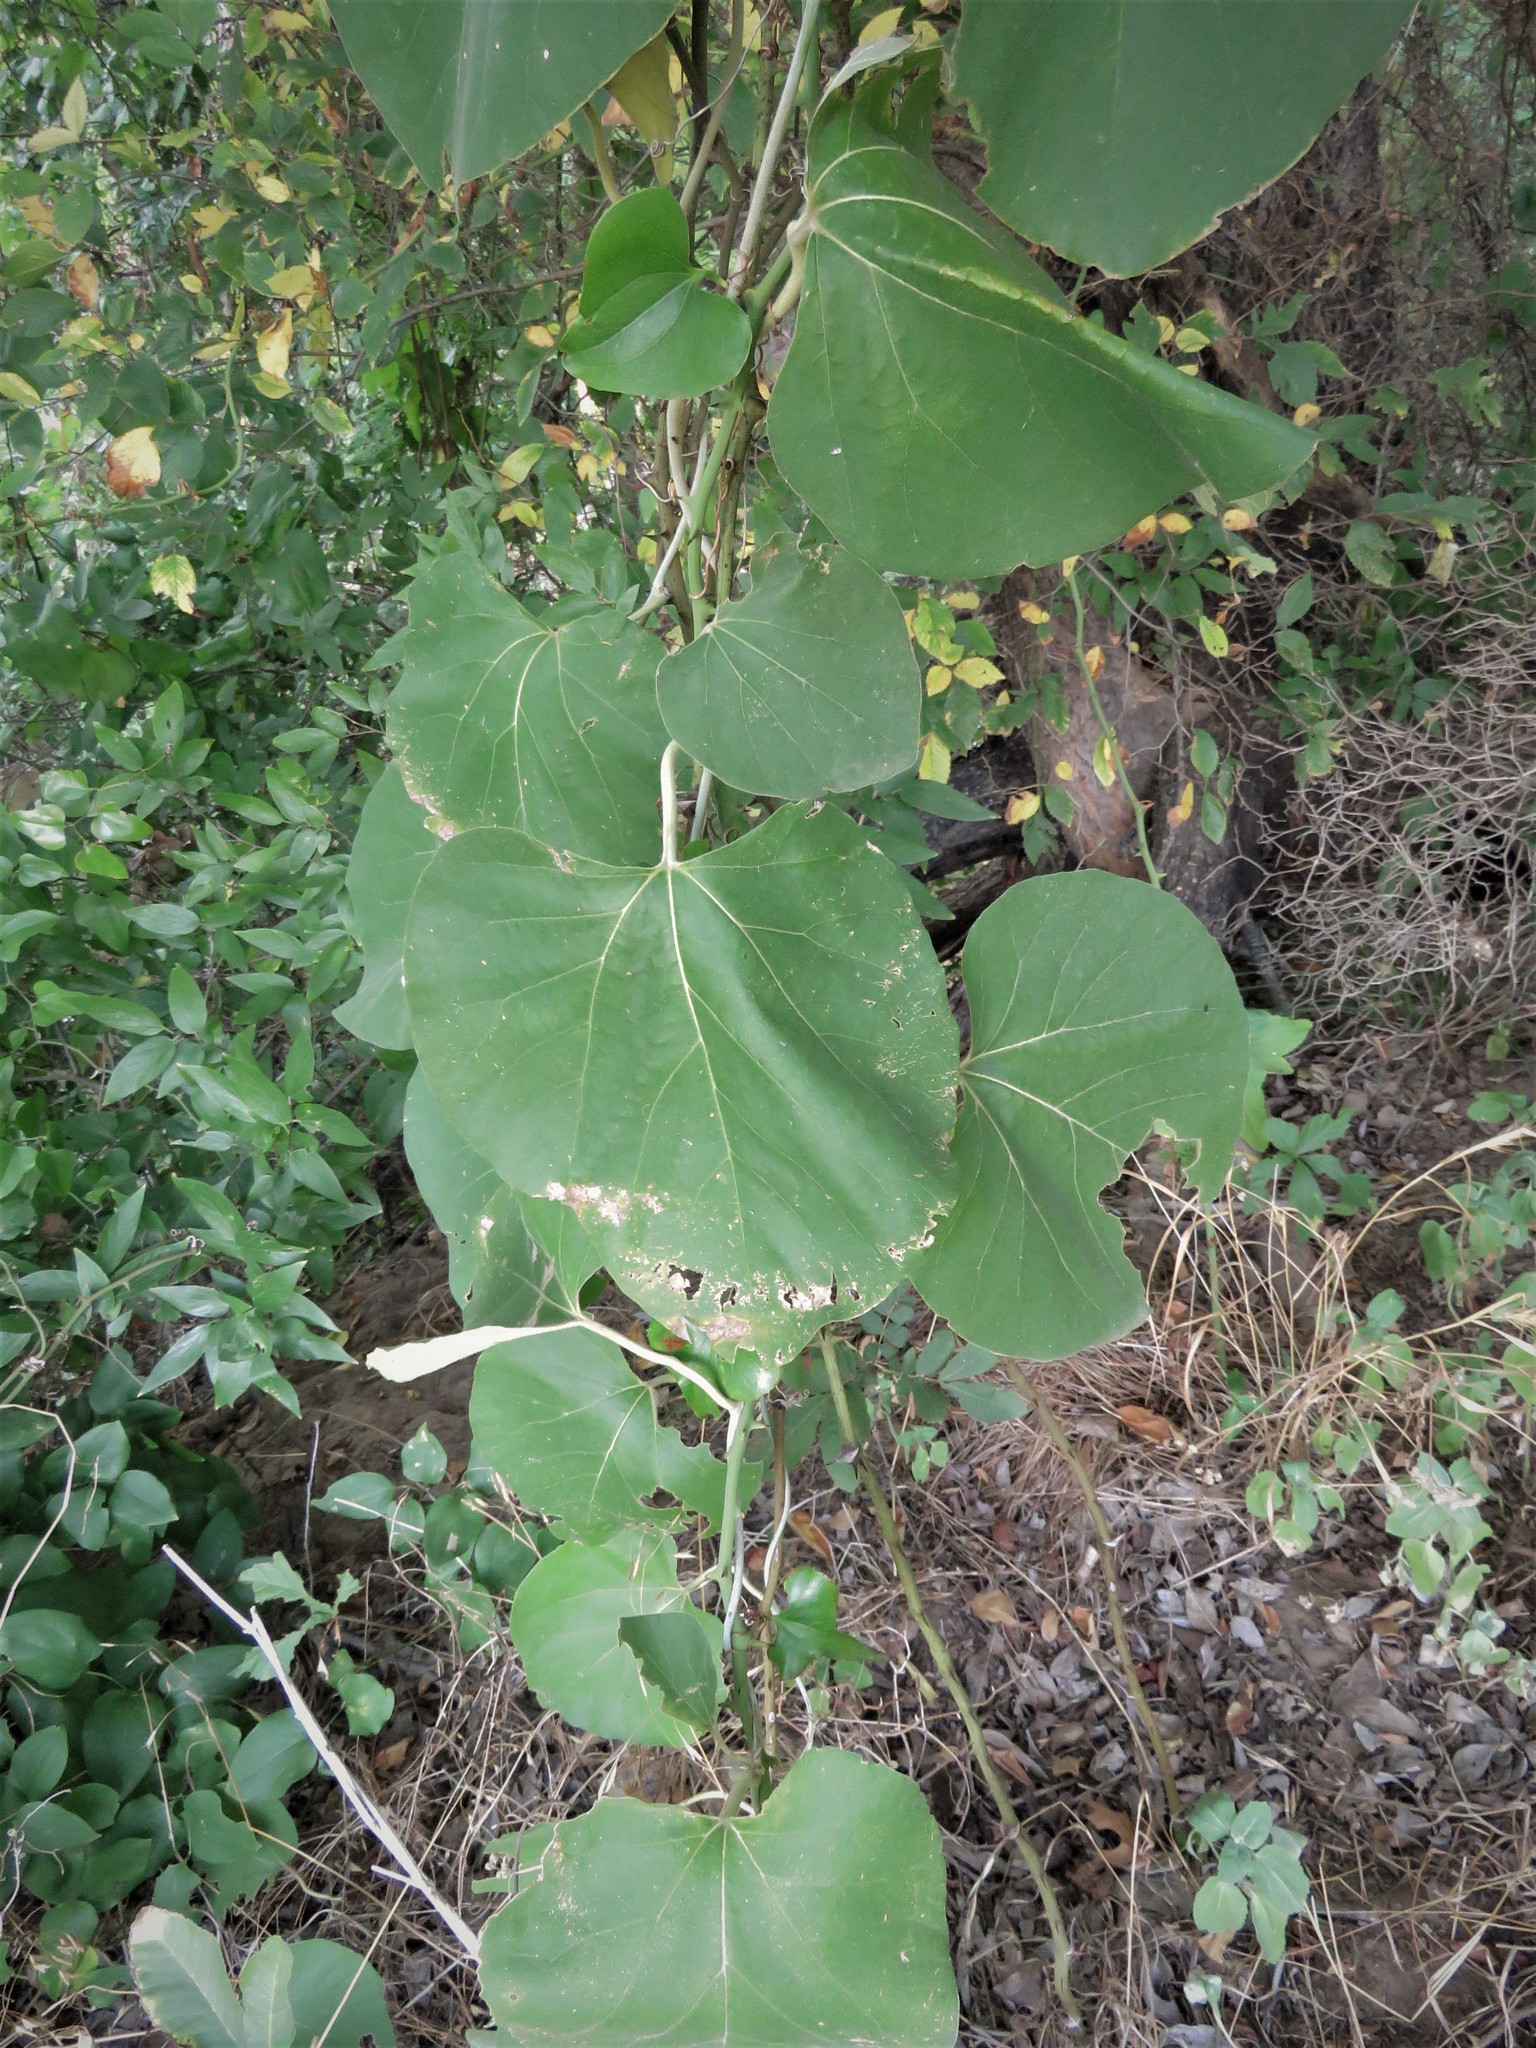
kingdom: Plantae
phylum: Tracheophyta
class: Magnoliopsida
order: Piperales
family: Aristolochiaceae
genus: Isotrema
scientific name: Isotrema tomentosum
